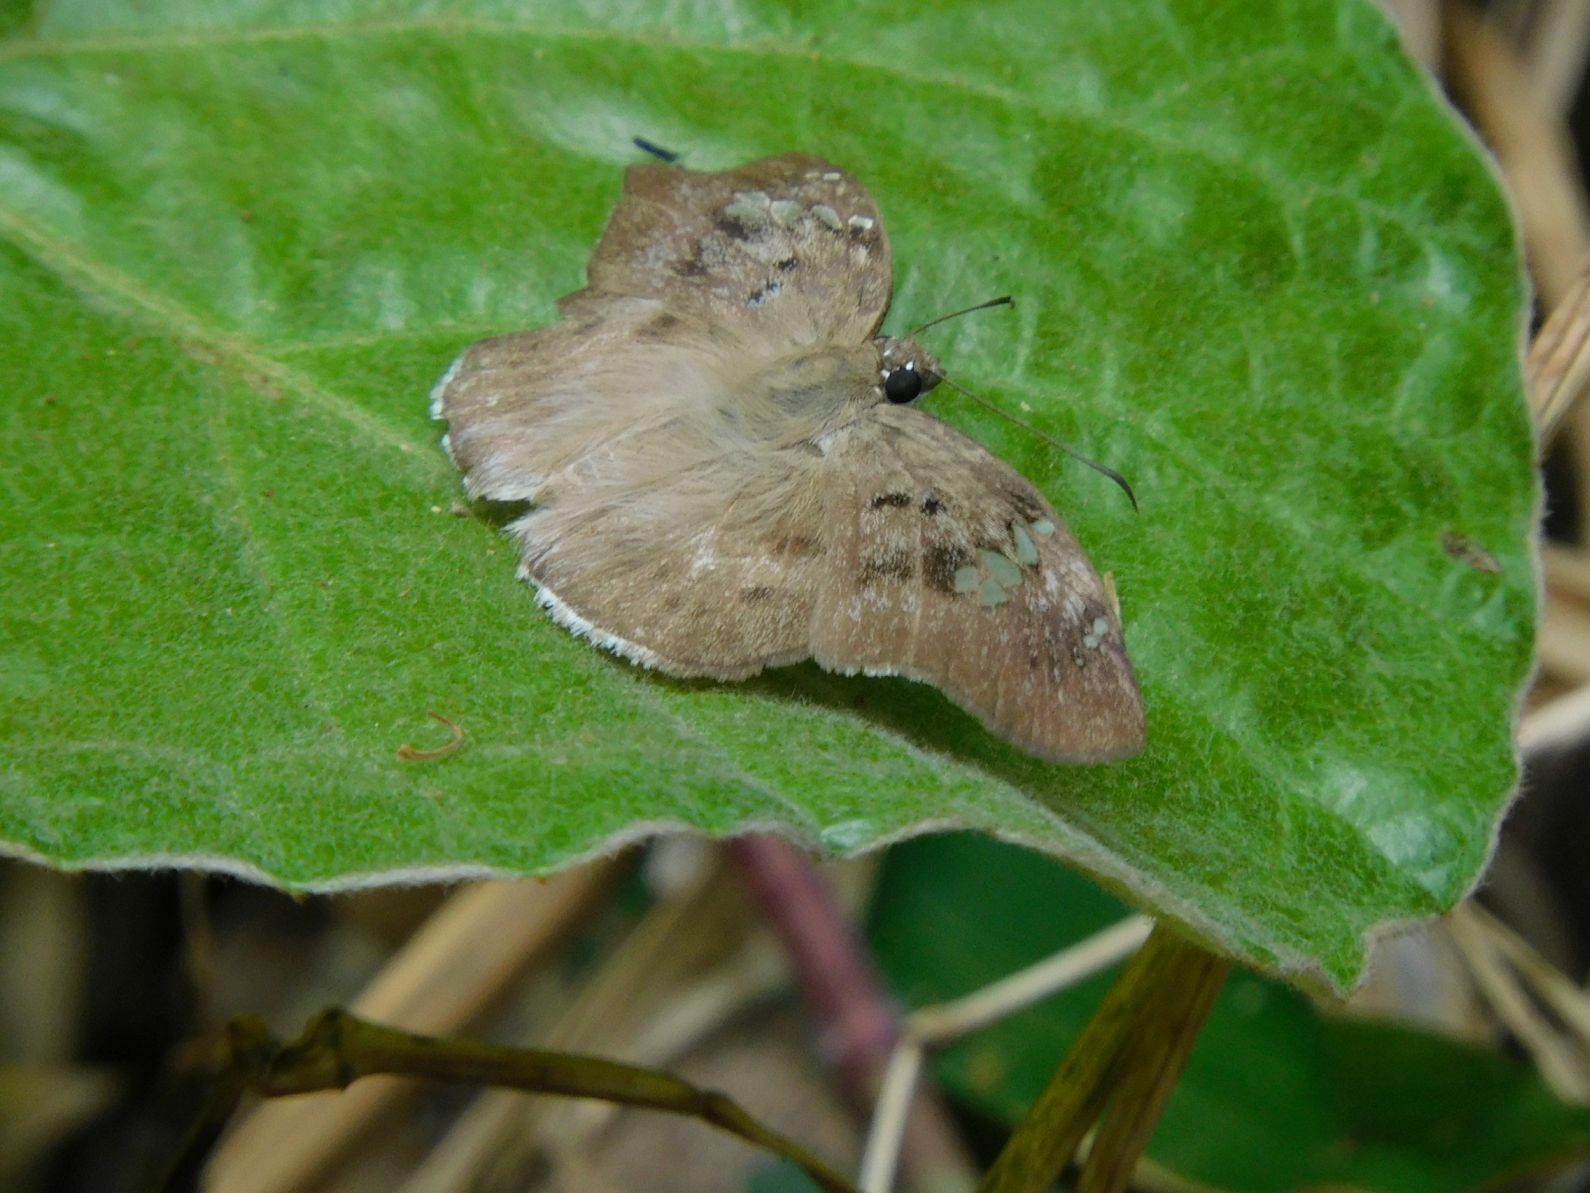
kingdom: Animalia
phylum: Arthropoda
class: Insecta
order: Lepidoptera
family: Hesperiidae
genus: Tagiades
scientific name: Tagiades flesus
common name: Clouded flat
